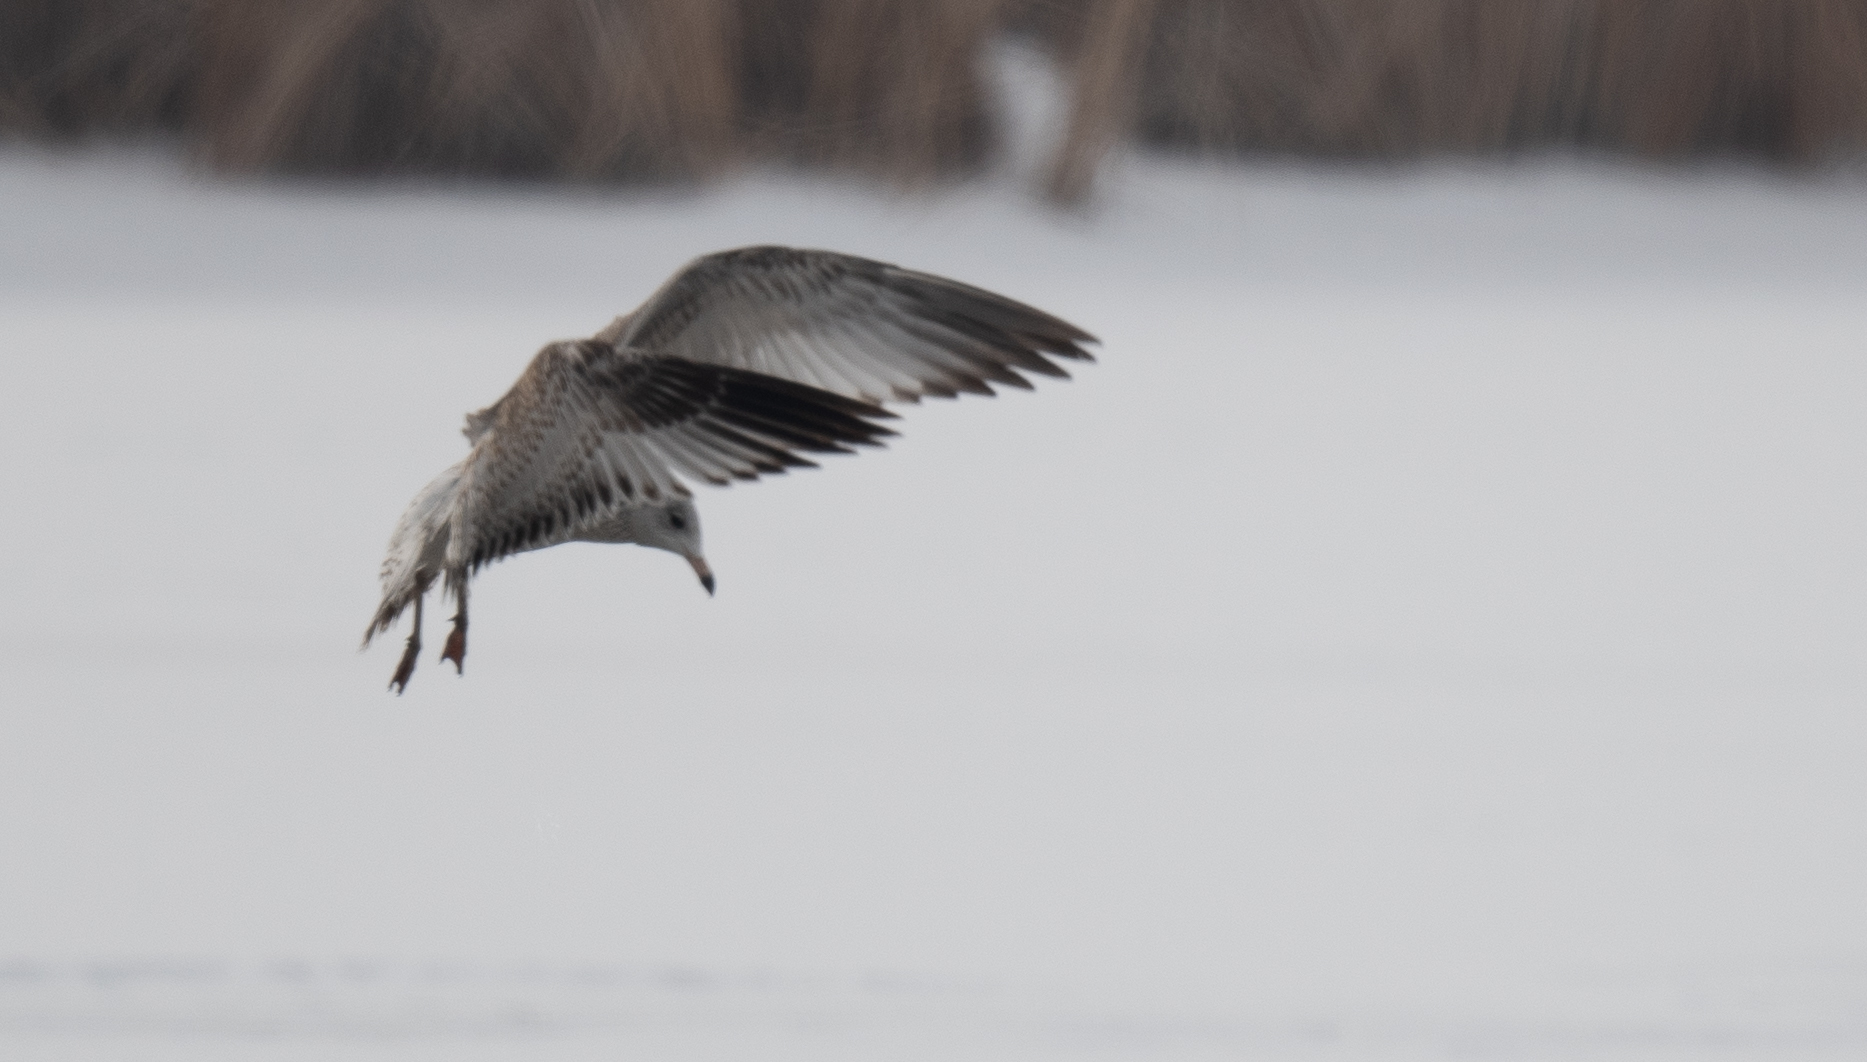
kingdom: Animalia
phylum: Chordata
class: Aves
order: Charadriiformes
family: Laridae
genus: Larus
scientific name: Larus californicus
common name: California gull
